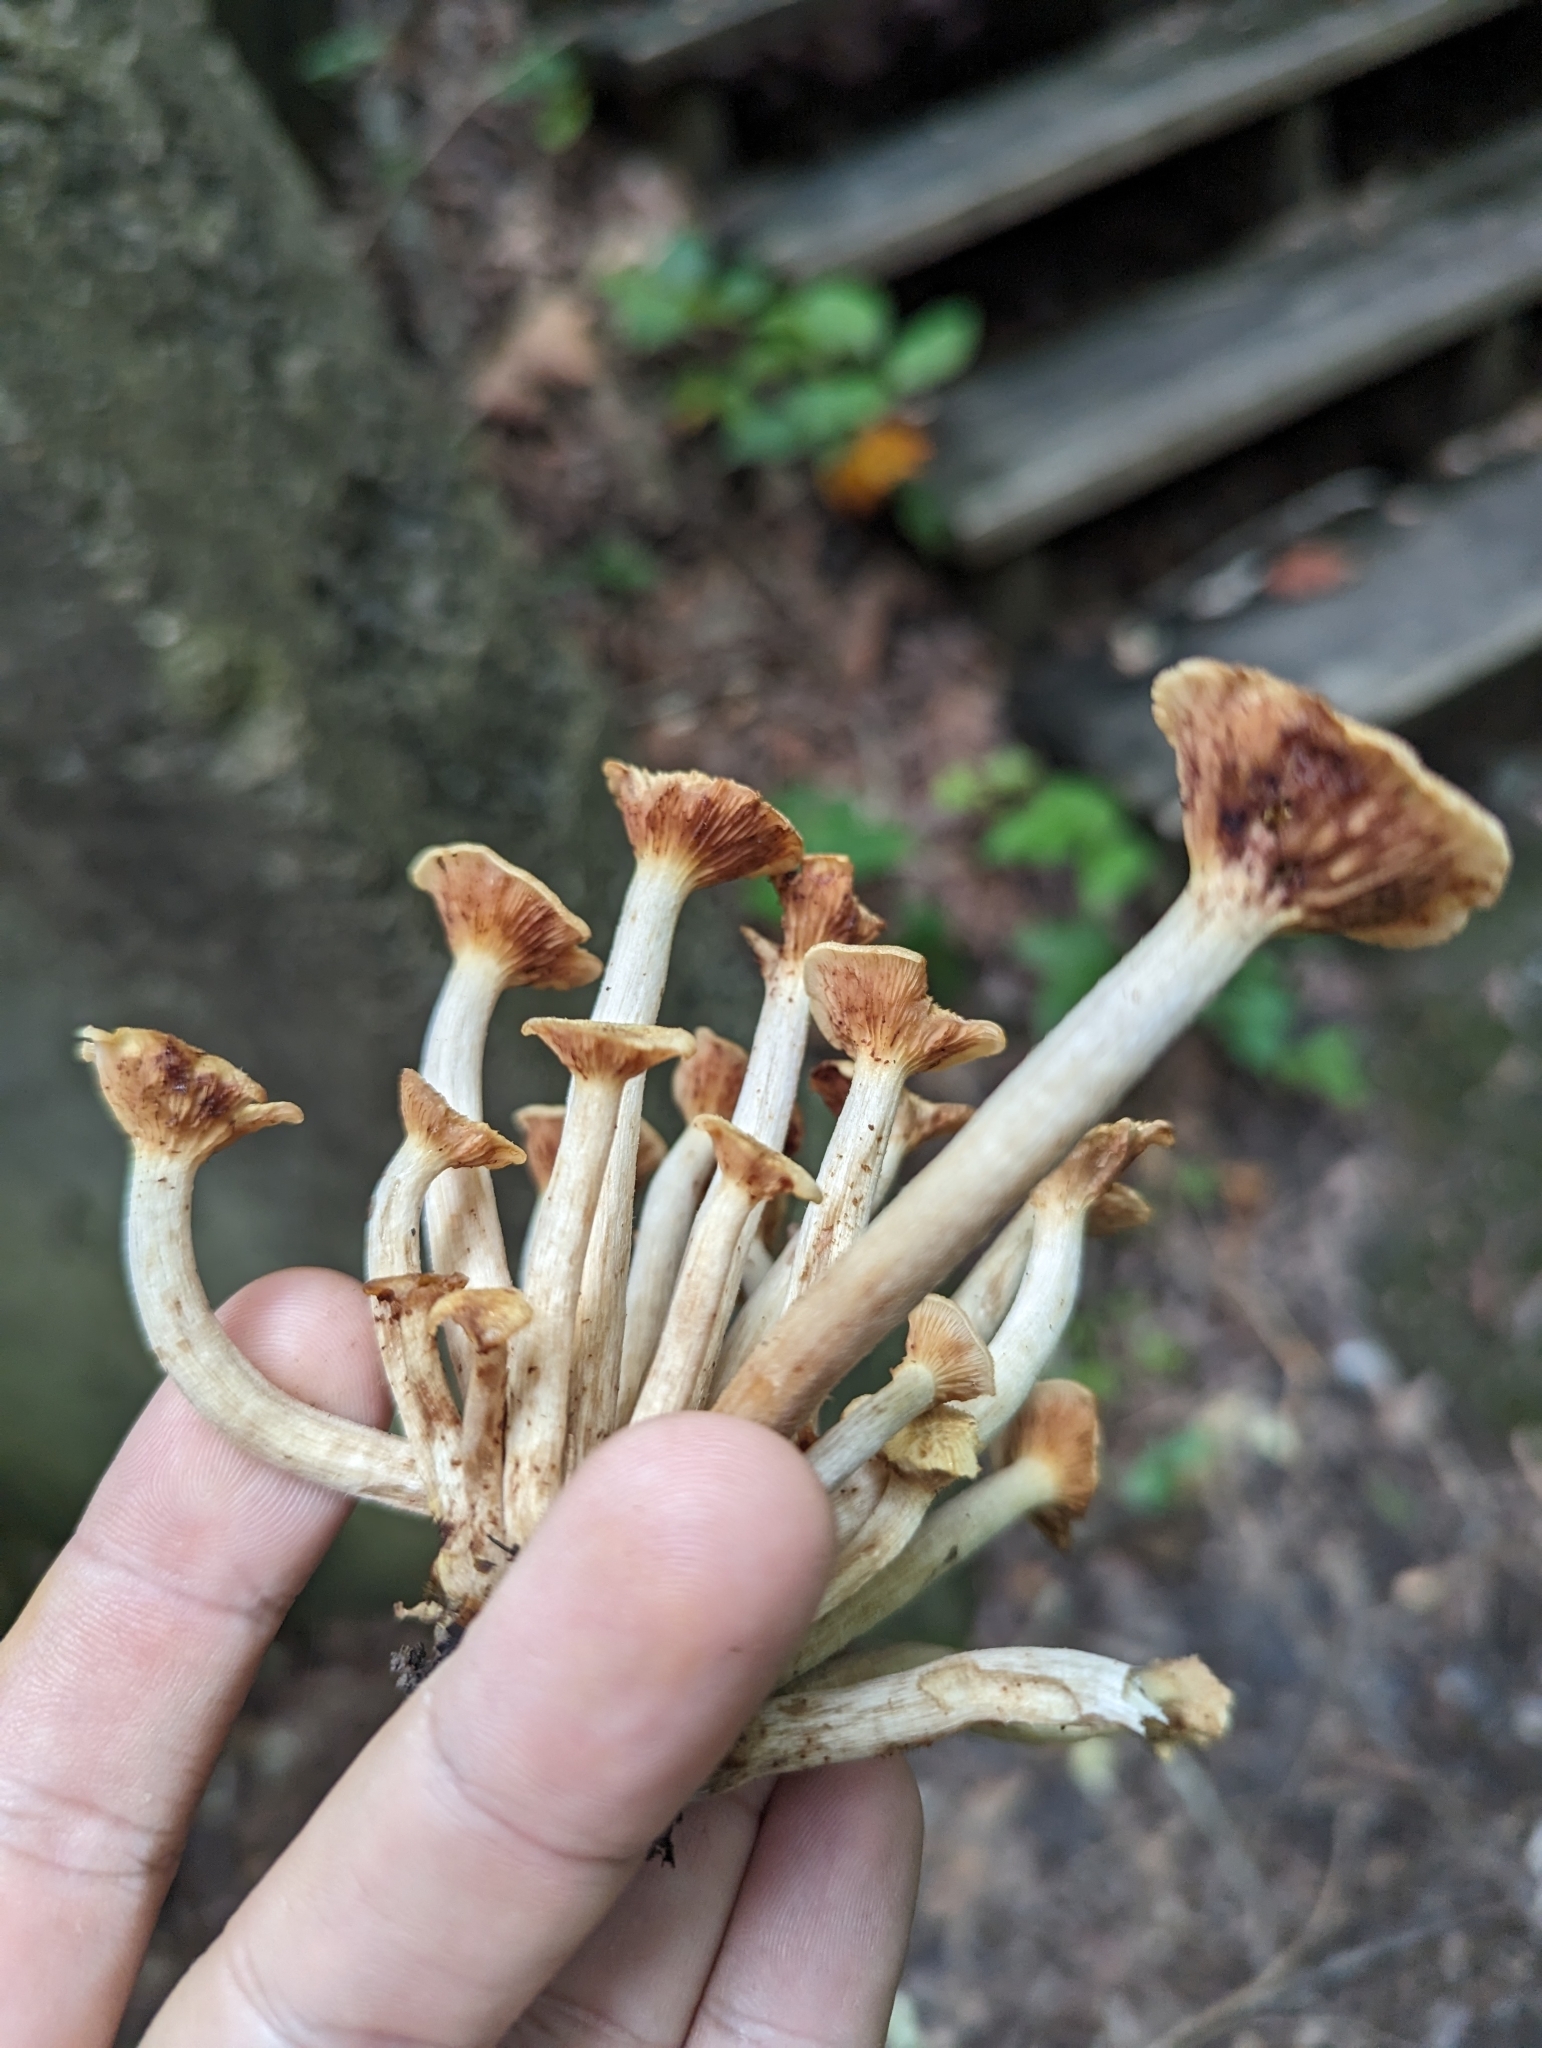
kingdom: Fungi
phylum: Basidiomycota
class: Agaricomycetes
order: Agaricales
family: Physalacriaceae
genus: Desarmillaria
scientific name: Desarmillaria caespitosa
